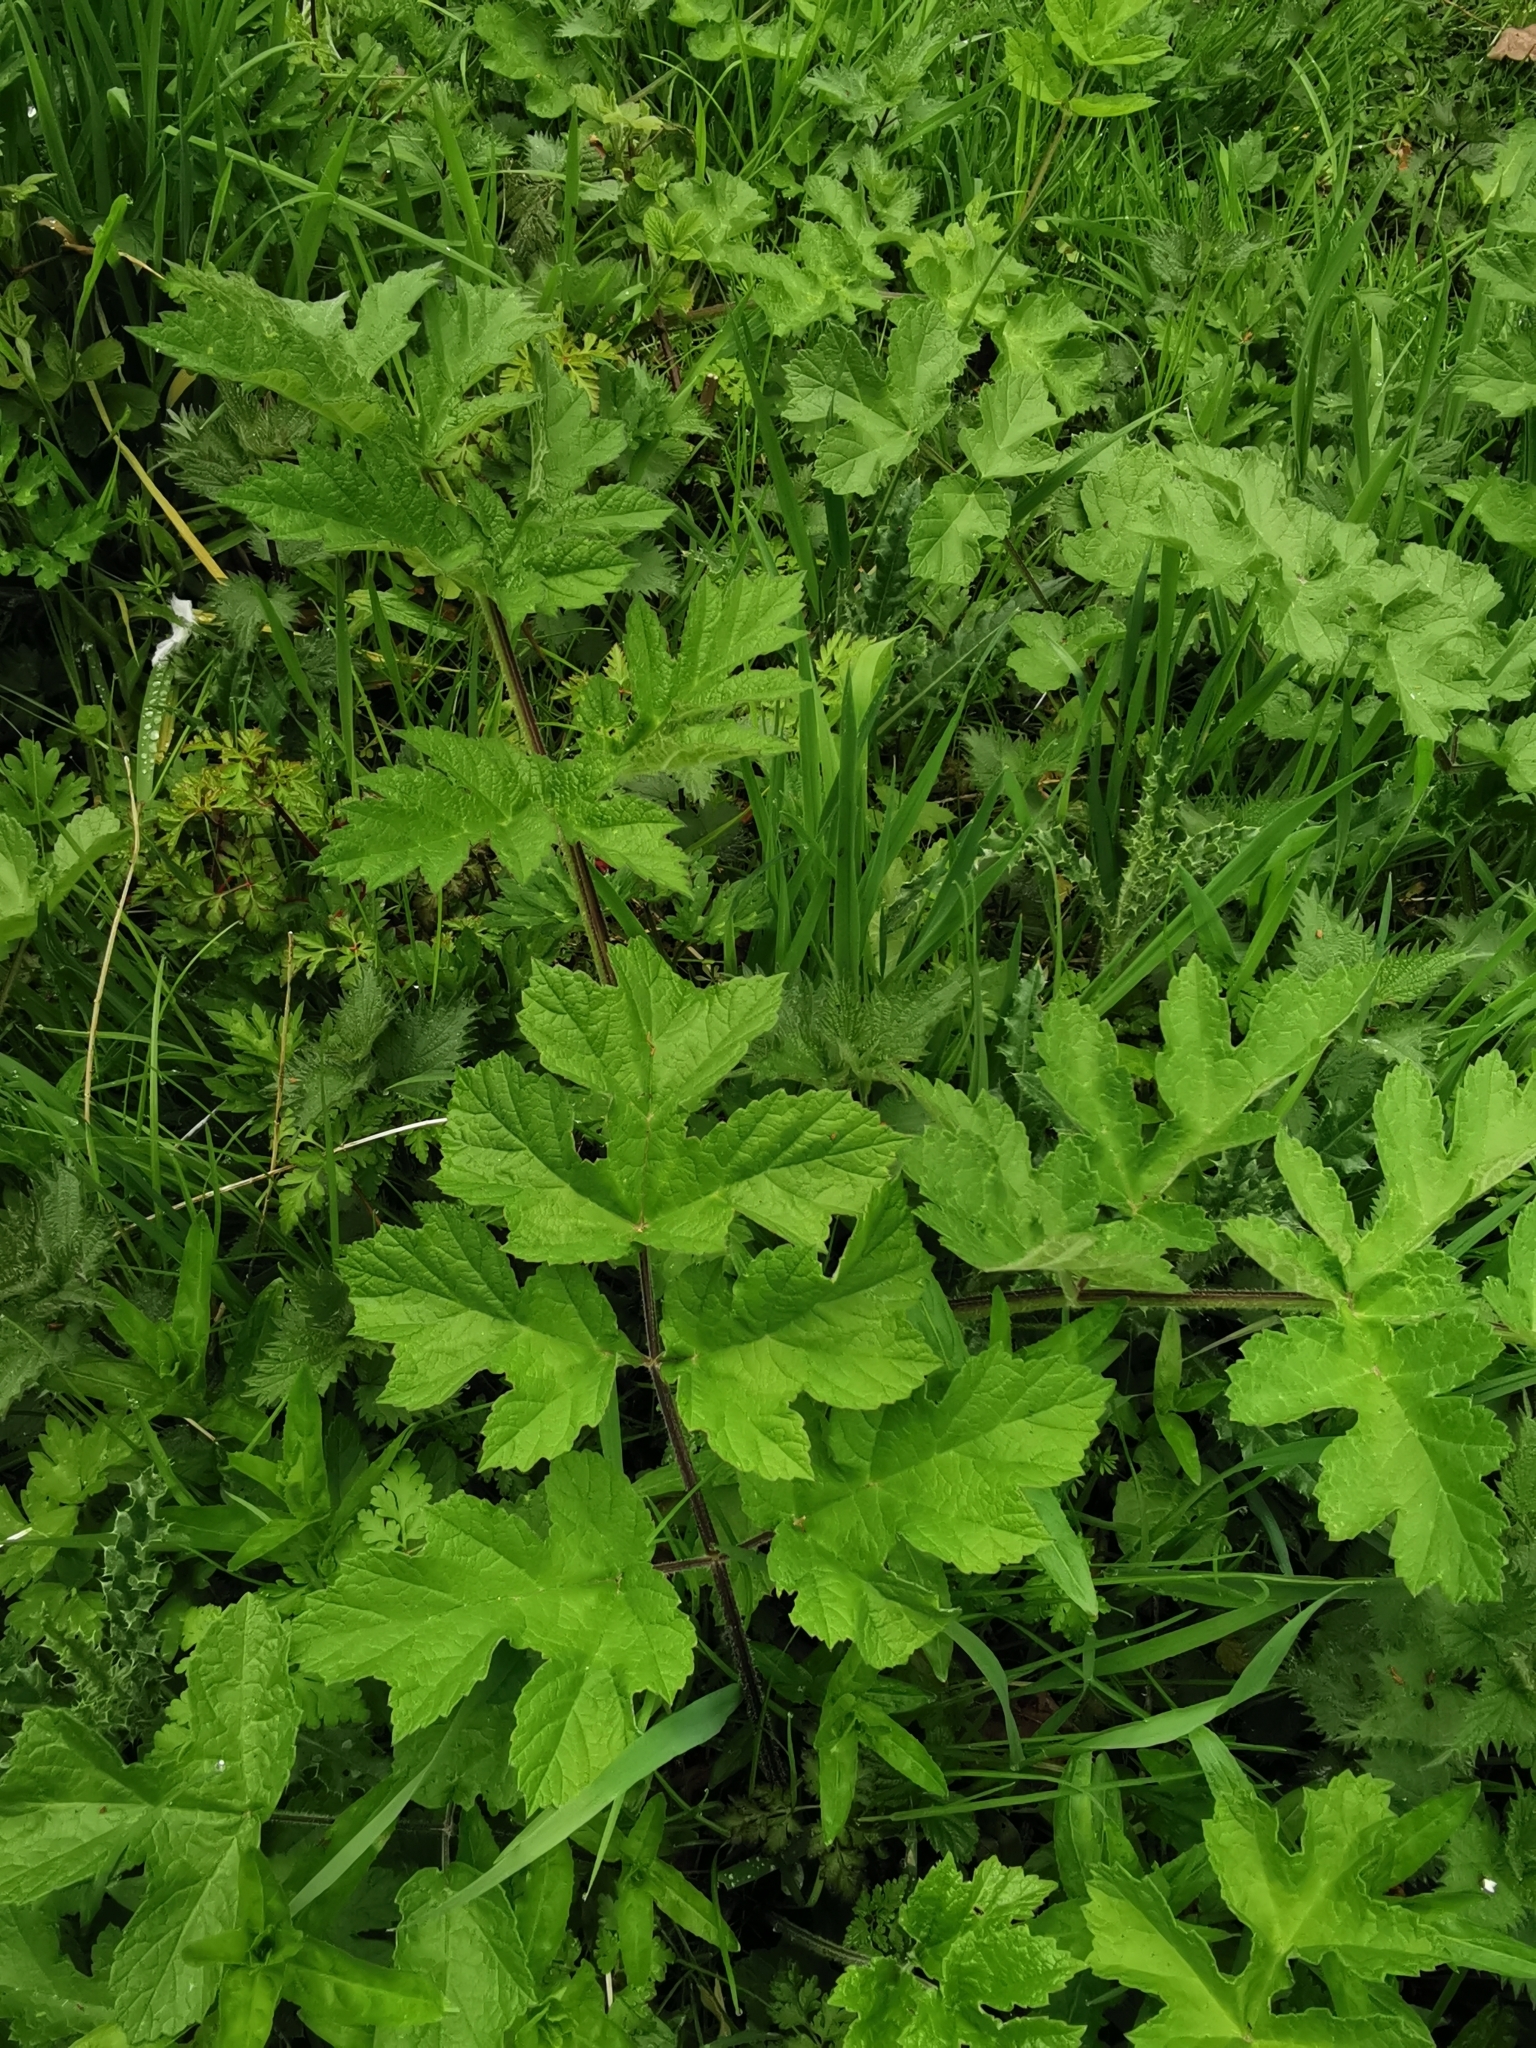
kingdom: Plantae
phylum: Tracheophyta
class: Magnoliopsida
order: Apiales
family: Apiaceae
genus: Heracleum
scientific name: Heracleum sphondylium
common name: Hogweed
